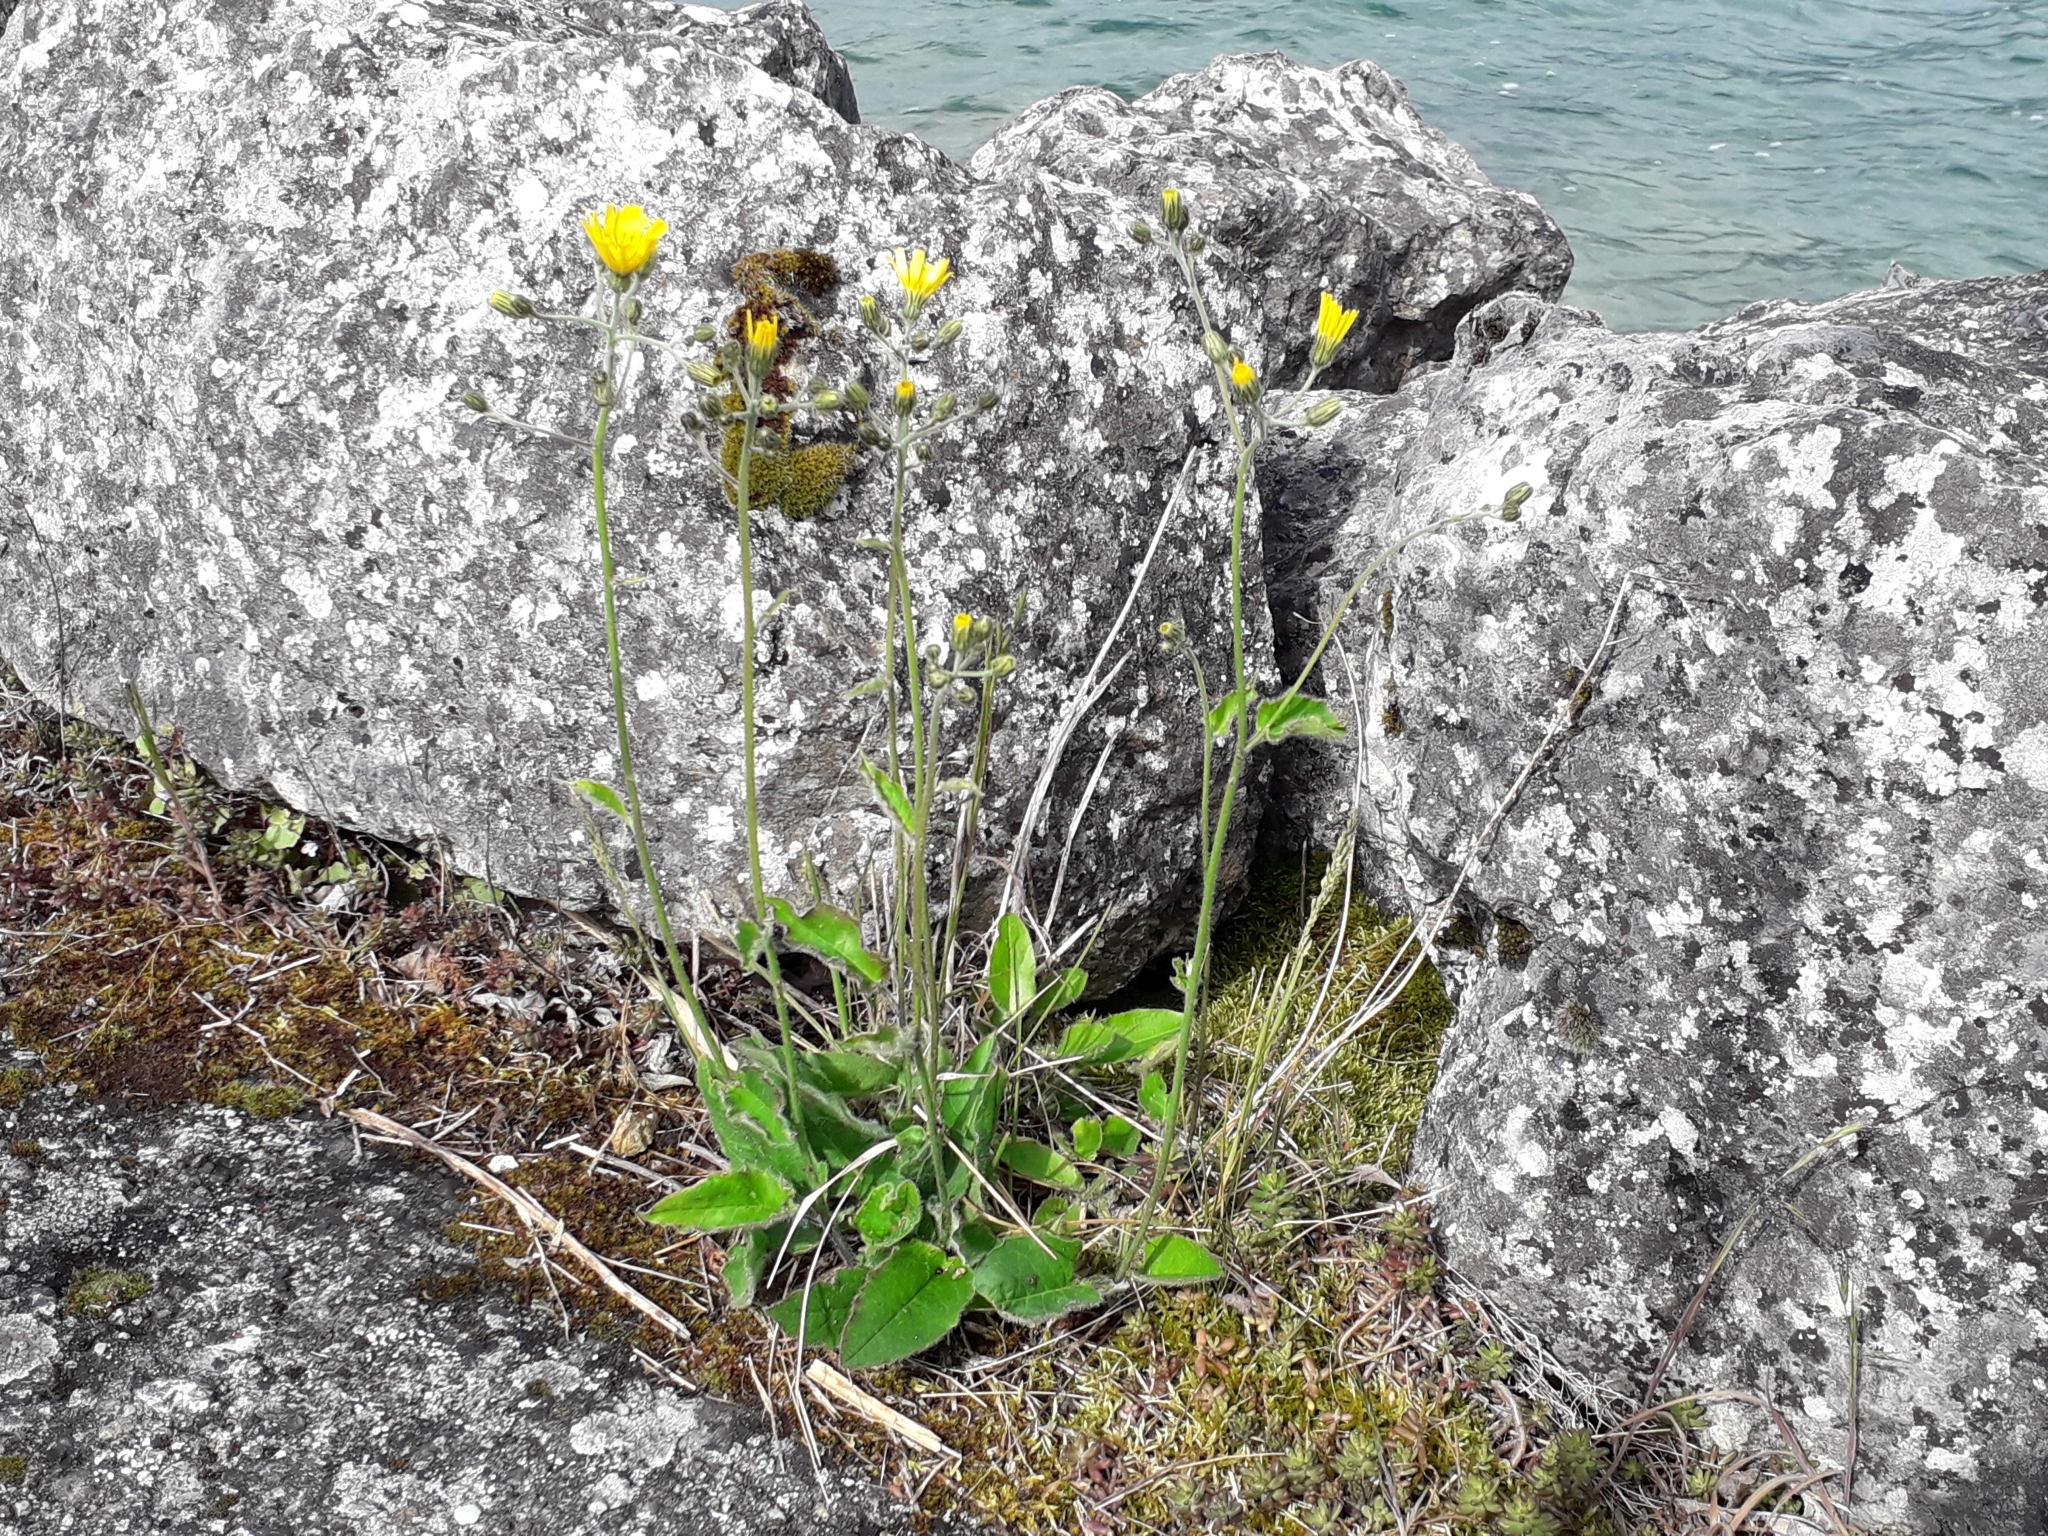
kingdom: Plantae
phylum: Tracheophyta
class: Magnoliopsida
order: Asterales
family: Asteraceae
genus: Hieracium
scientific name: Hieracium murorum
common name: Wall hawkweed
